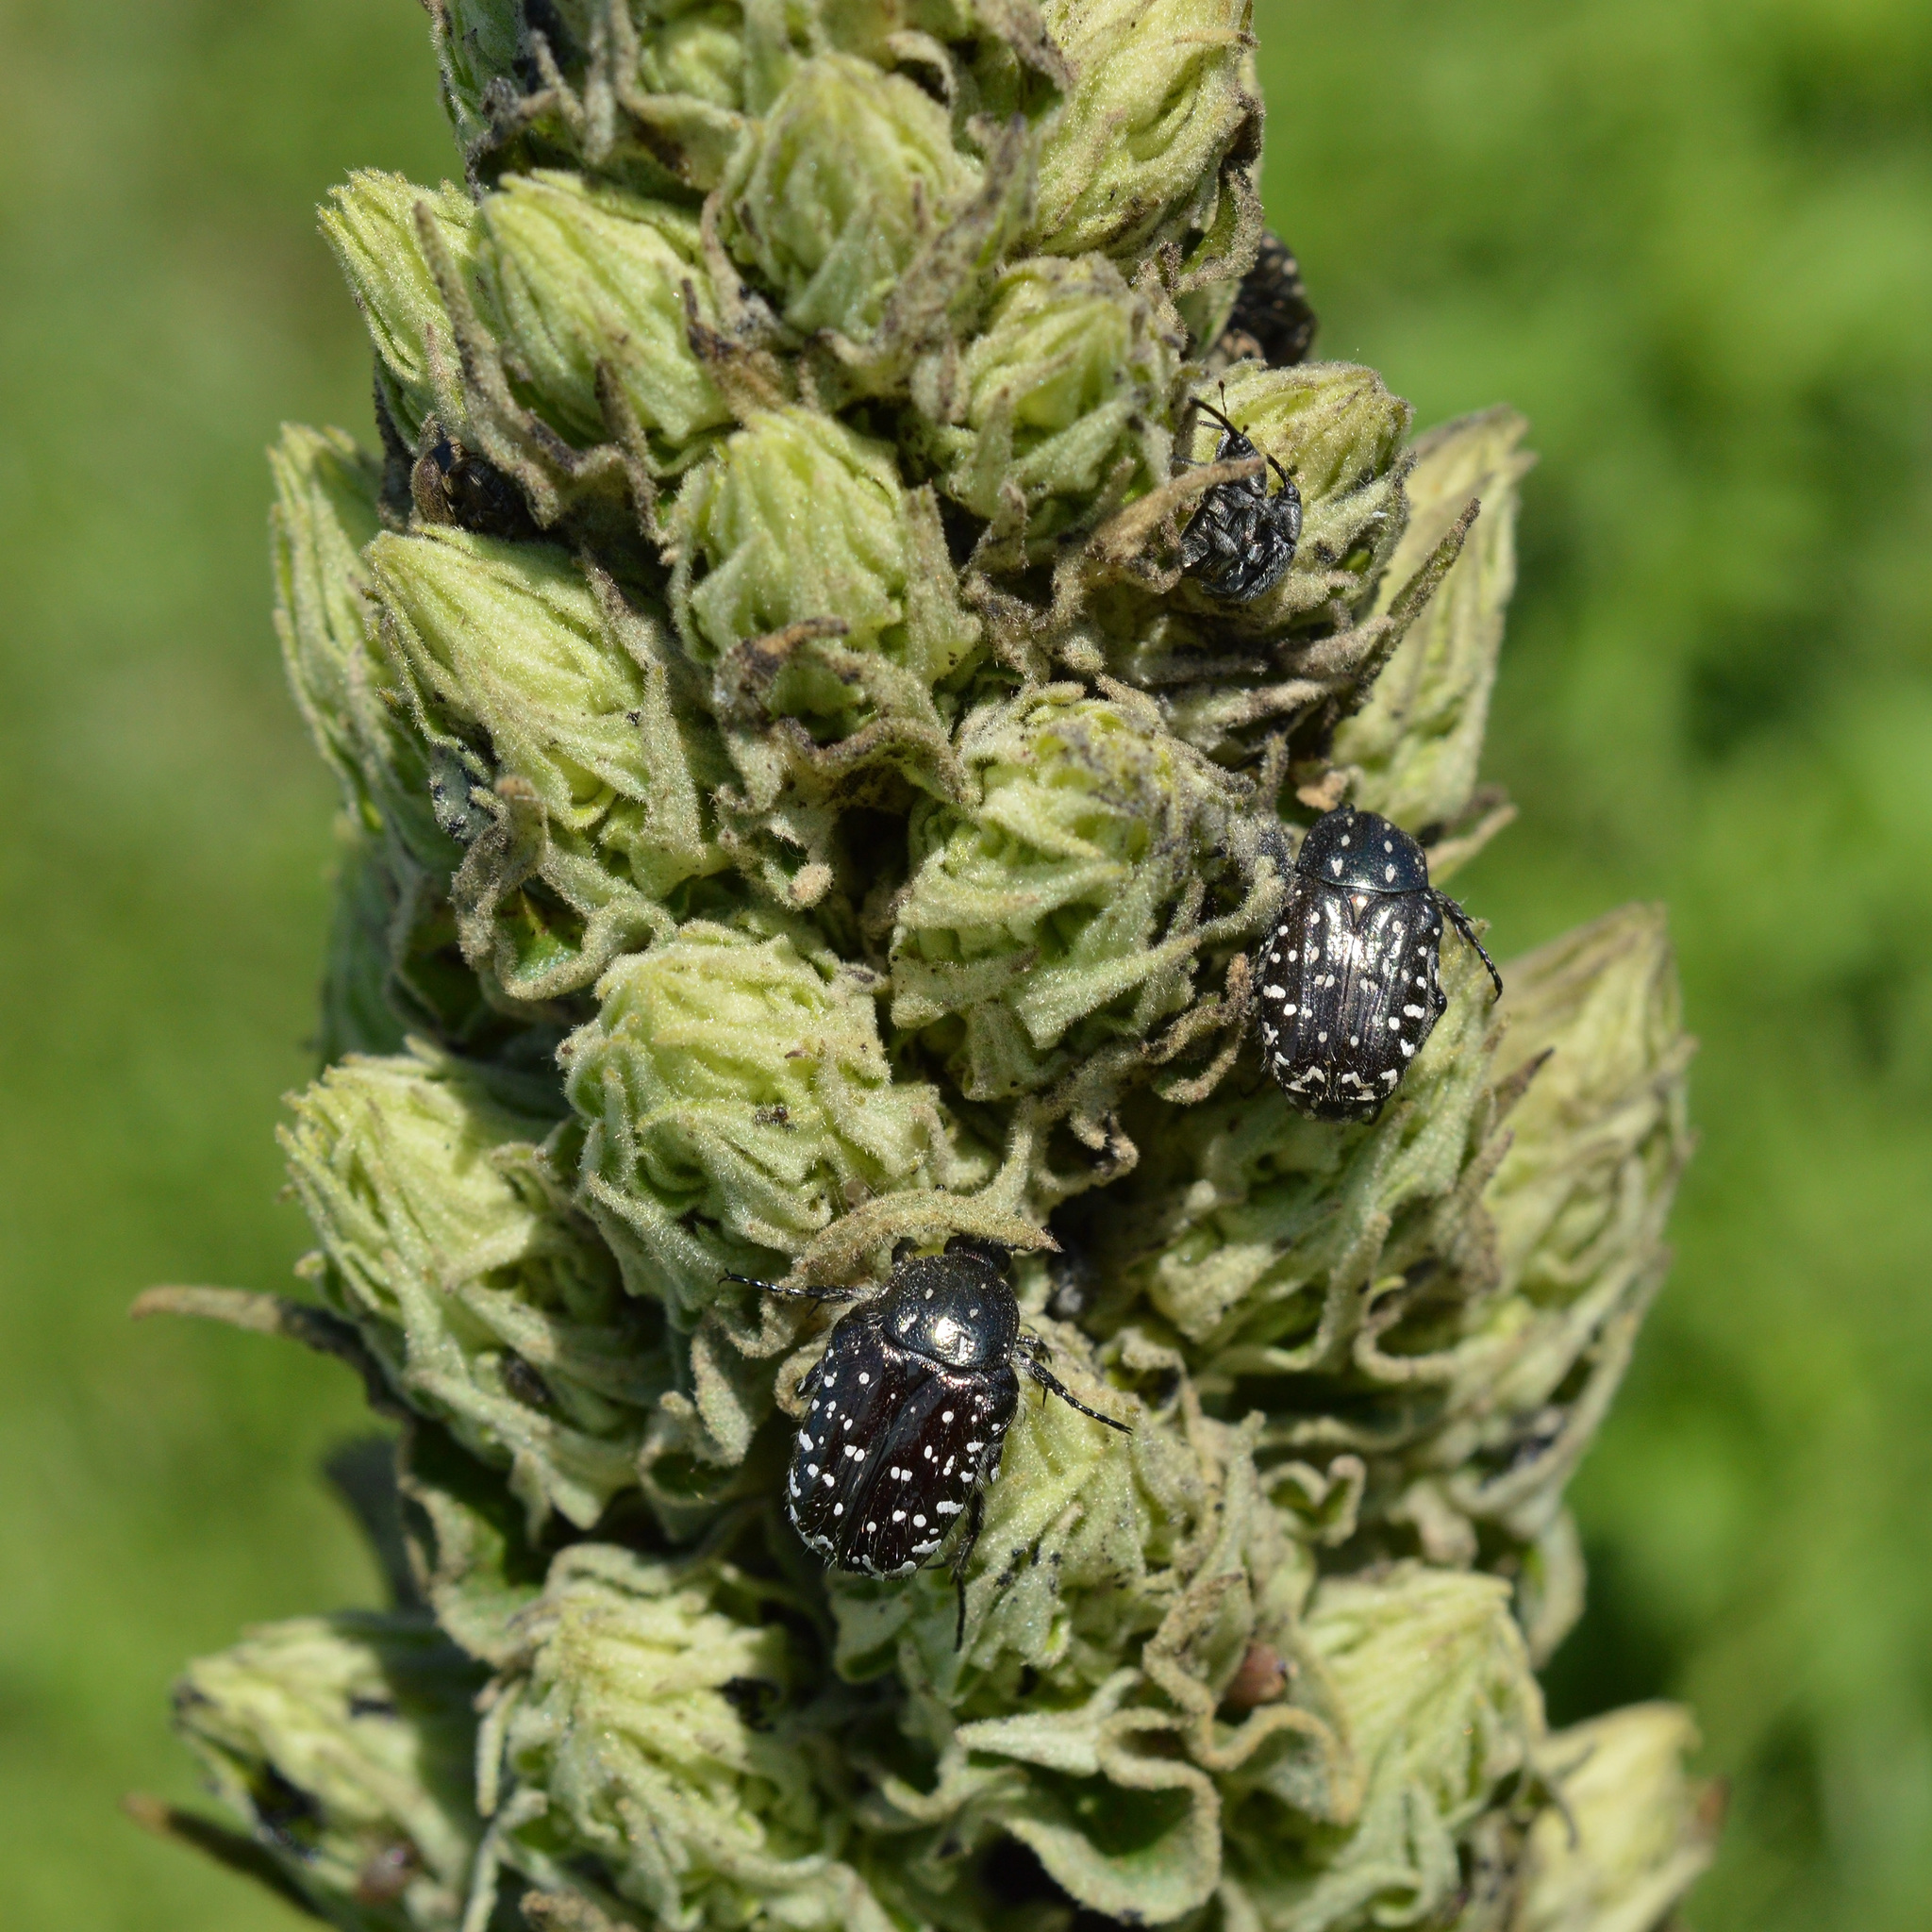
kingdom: Animalia
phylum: Arthropoda
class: Insecta
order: Coleoptera
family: Scarabaeidae
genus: Oxythyrea
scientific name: Oxythyrea funesta
